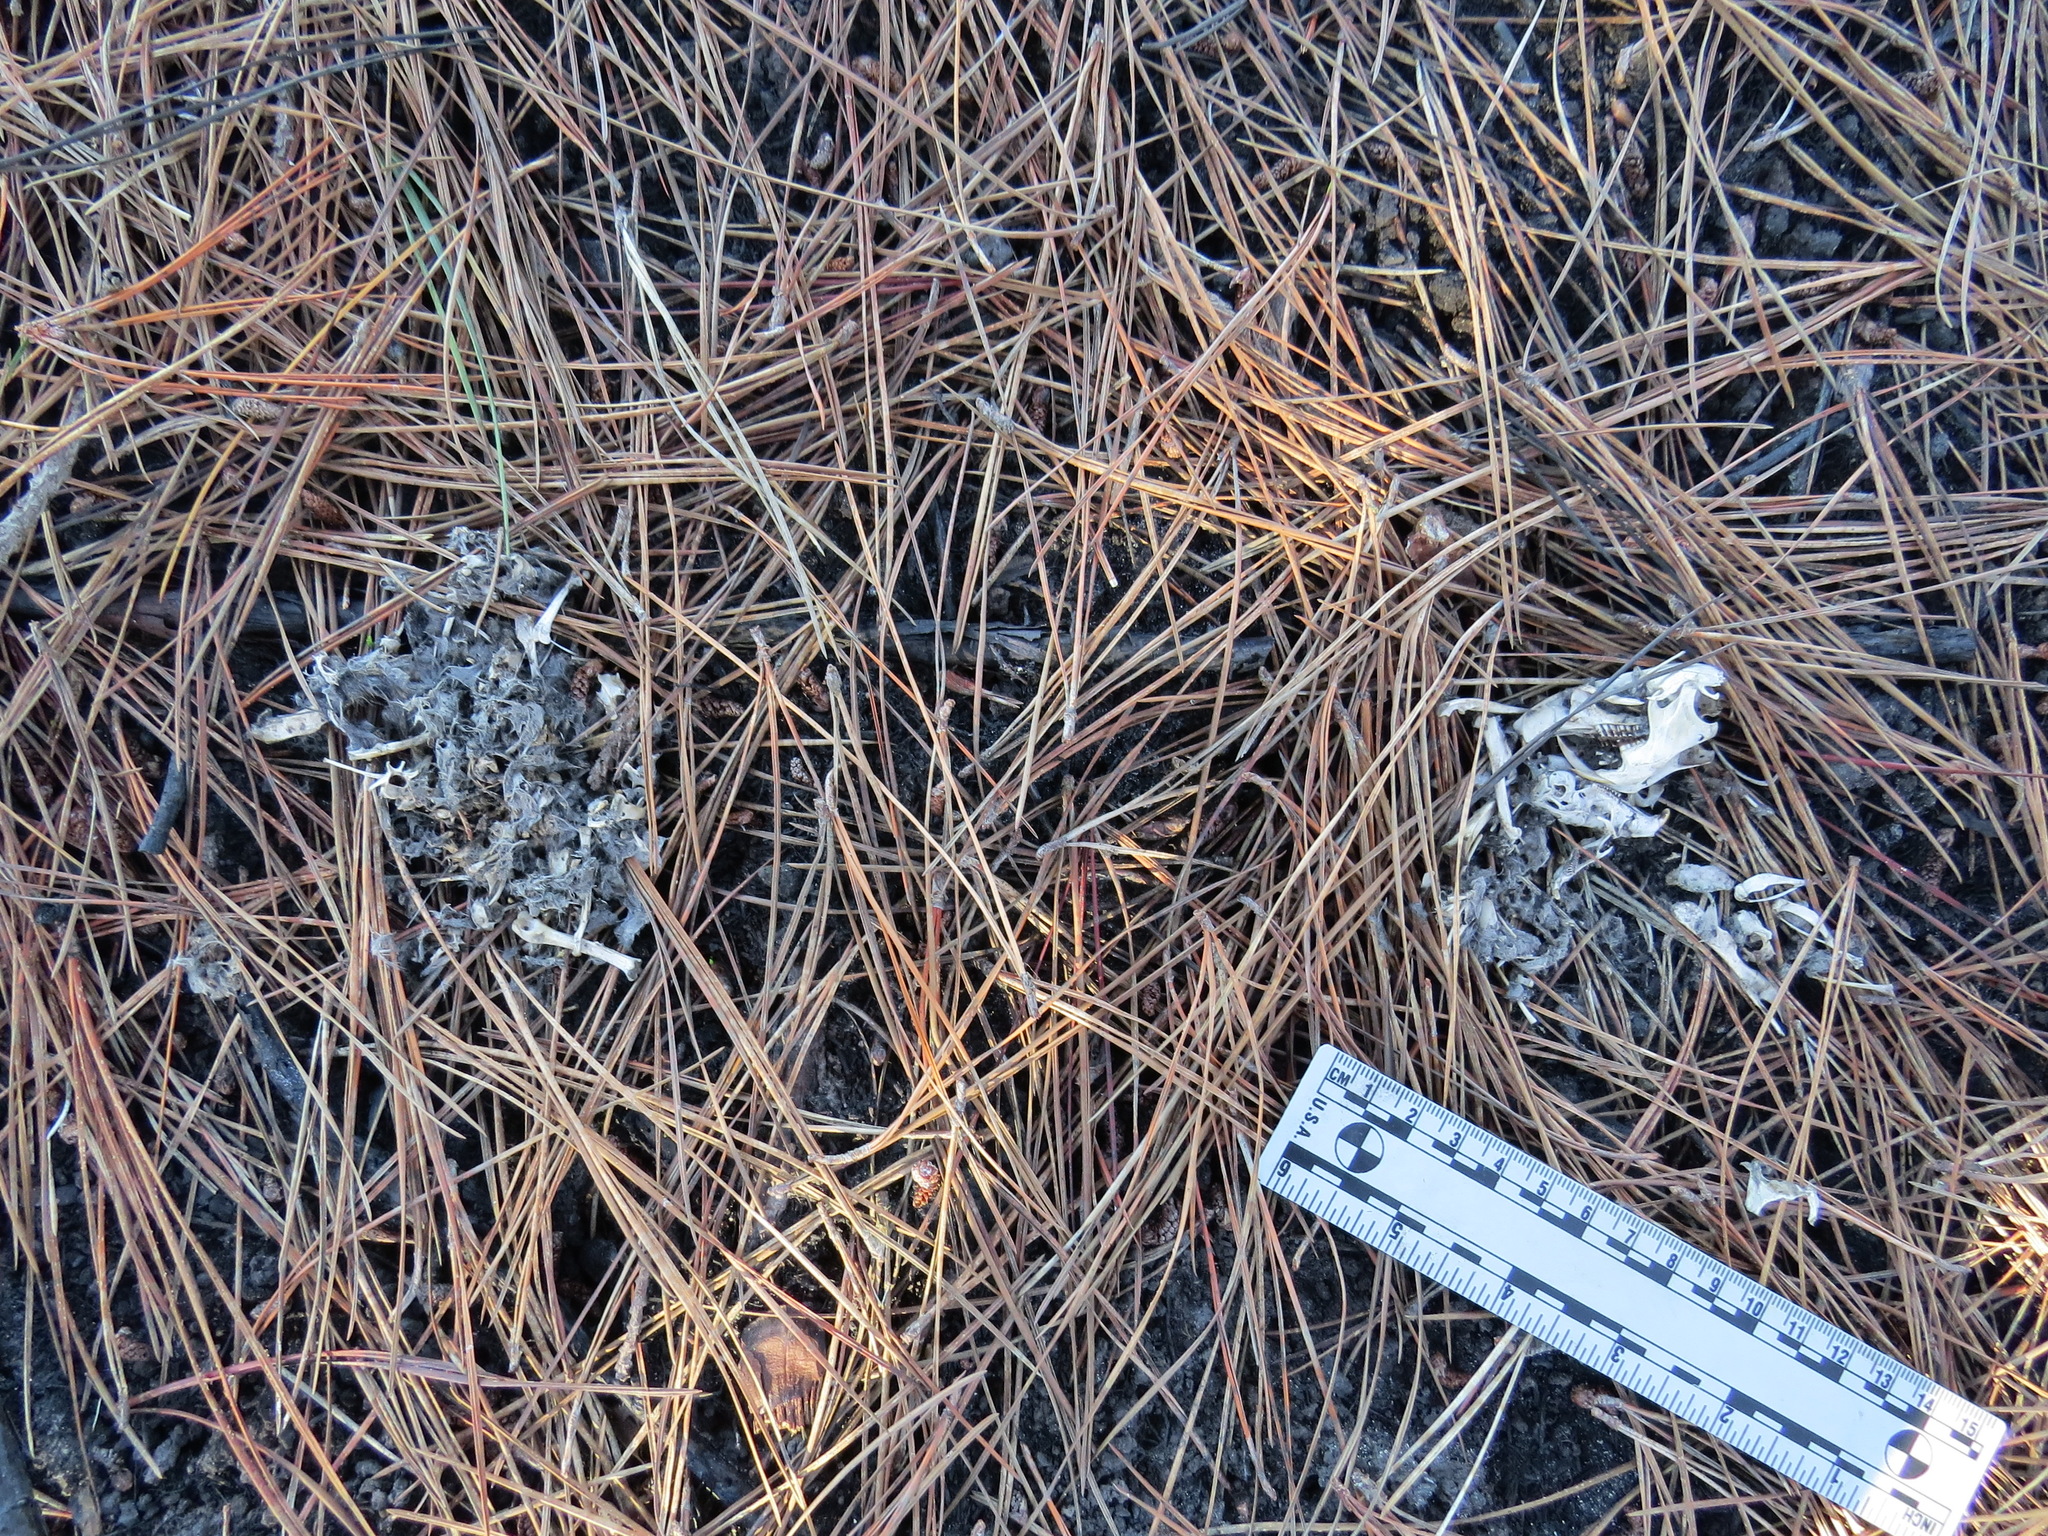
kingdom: Animalia
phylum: Chordata
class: Aves
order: Strigiformes
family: Strigidae
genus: Bubo
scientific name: Bubo virginianus
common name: Great horned owl
